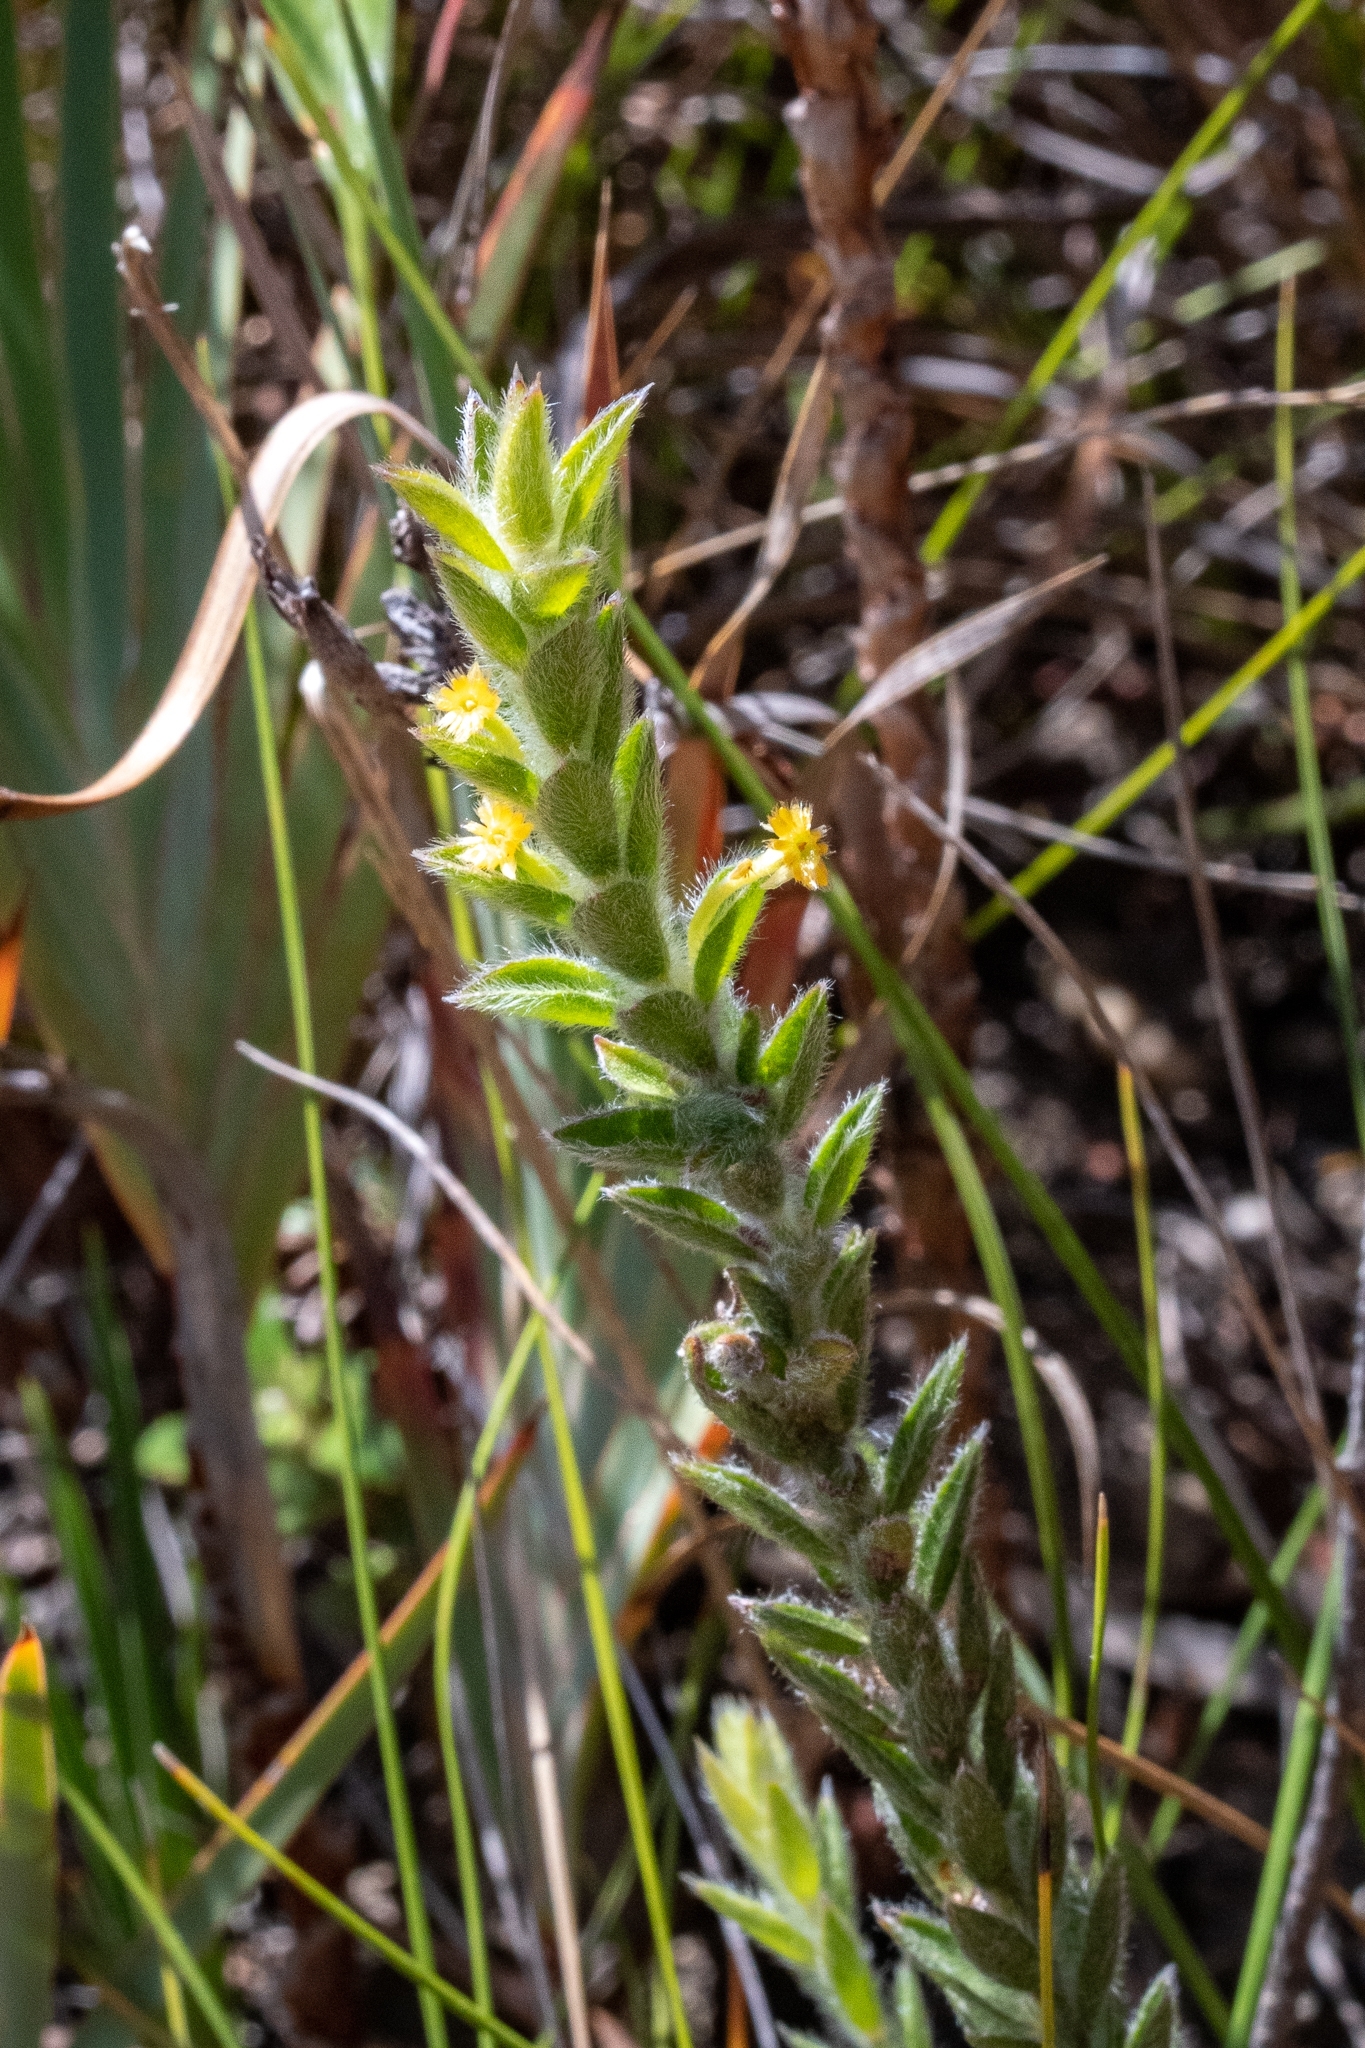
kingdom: Plantae
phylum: Tracheophyta
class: Magnoliopsida
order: Malvales
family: Thymelaeaceae
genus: Struthiola
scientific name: Struthiola tomentosa
